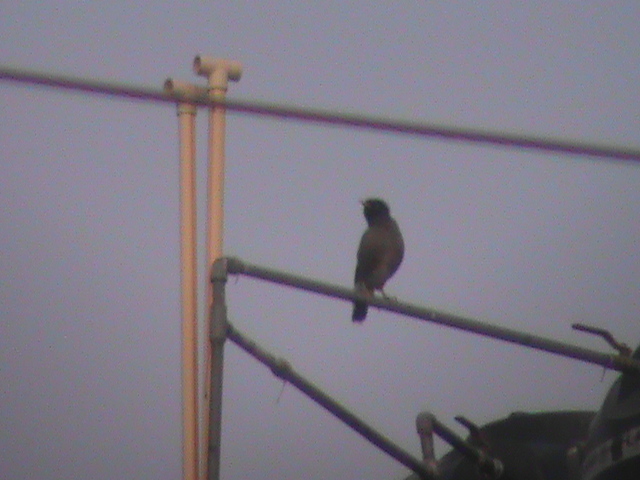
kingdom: Animalia
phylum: Chordata
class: Aves
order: Passeriformes
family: Sturnidae
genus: Acridotheres
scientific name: Acridotheres tristis
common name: Common myna
